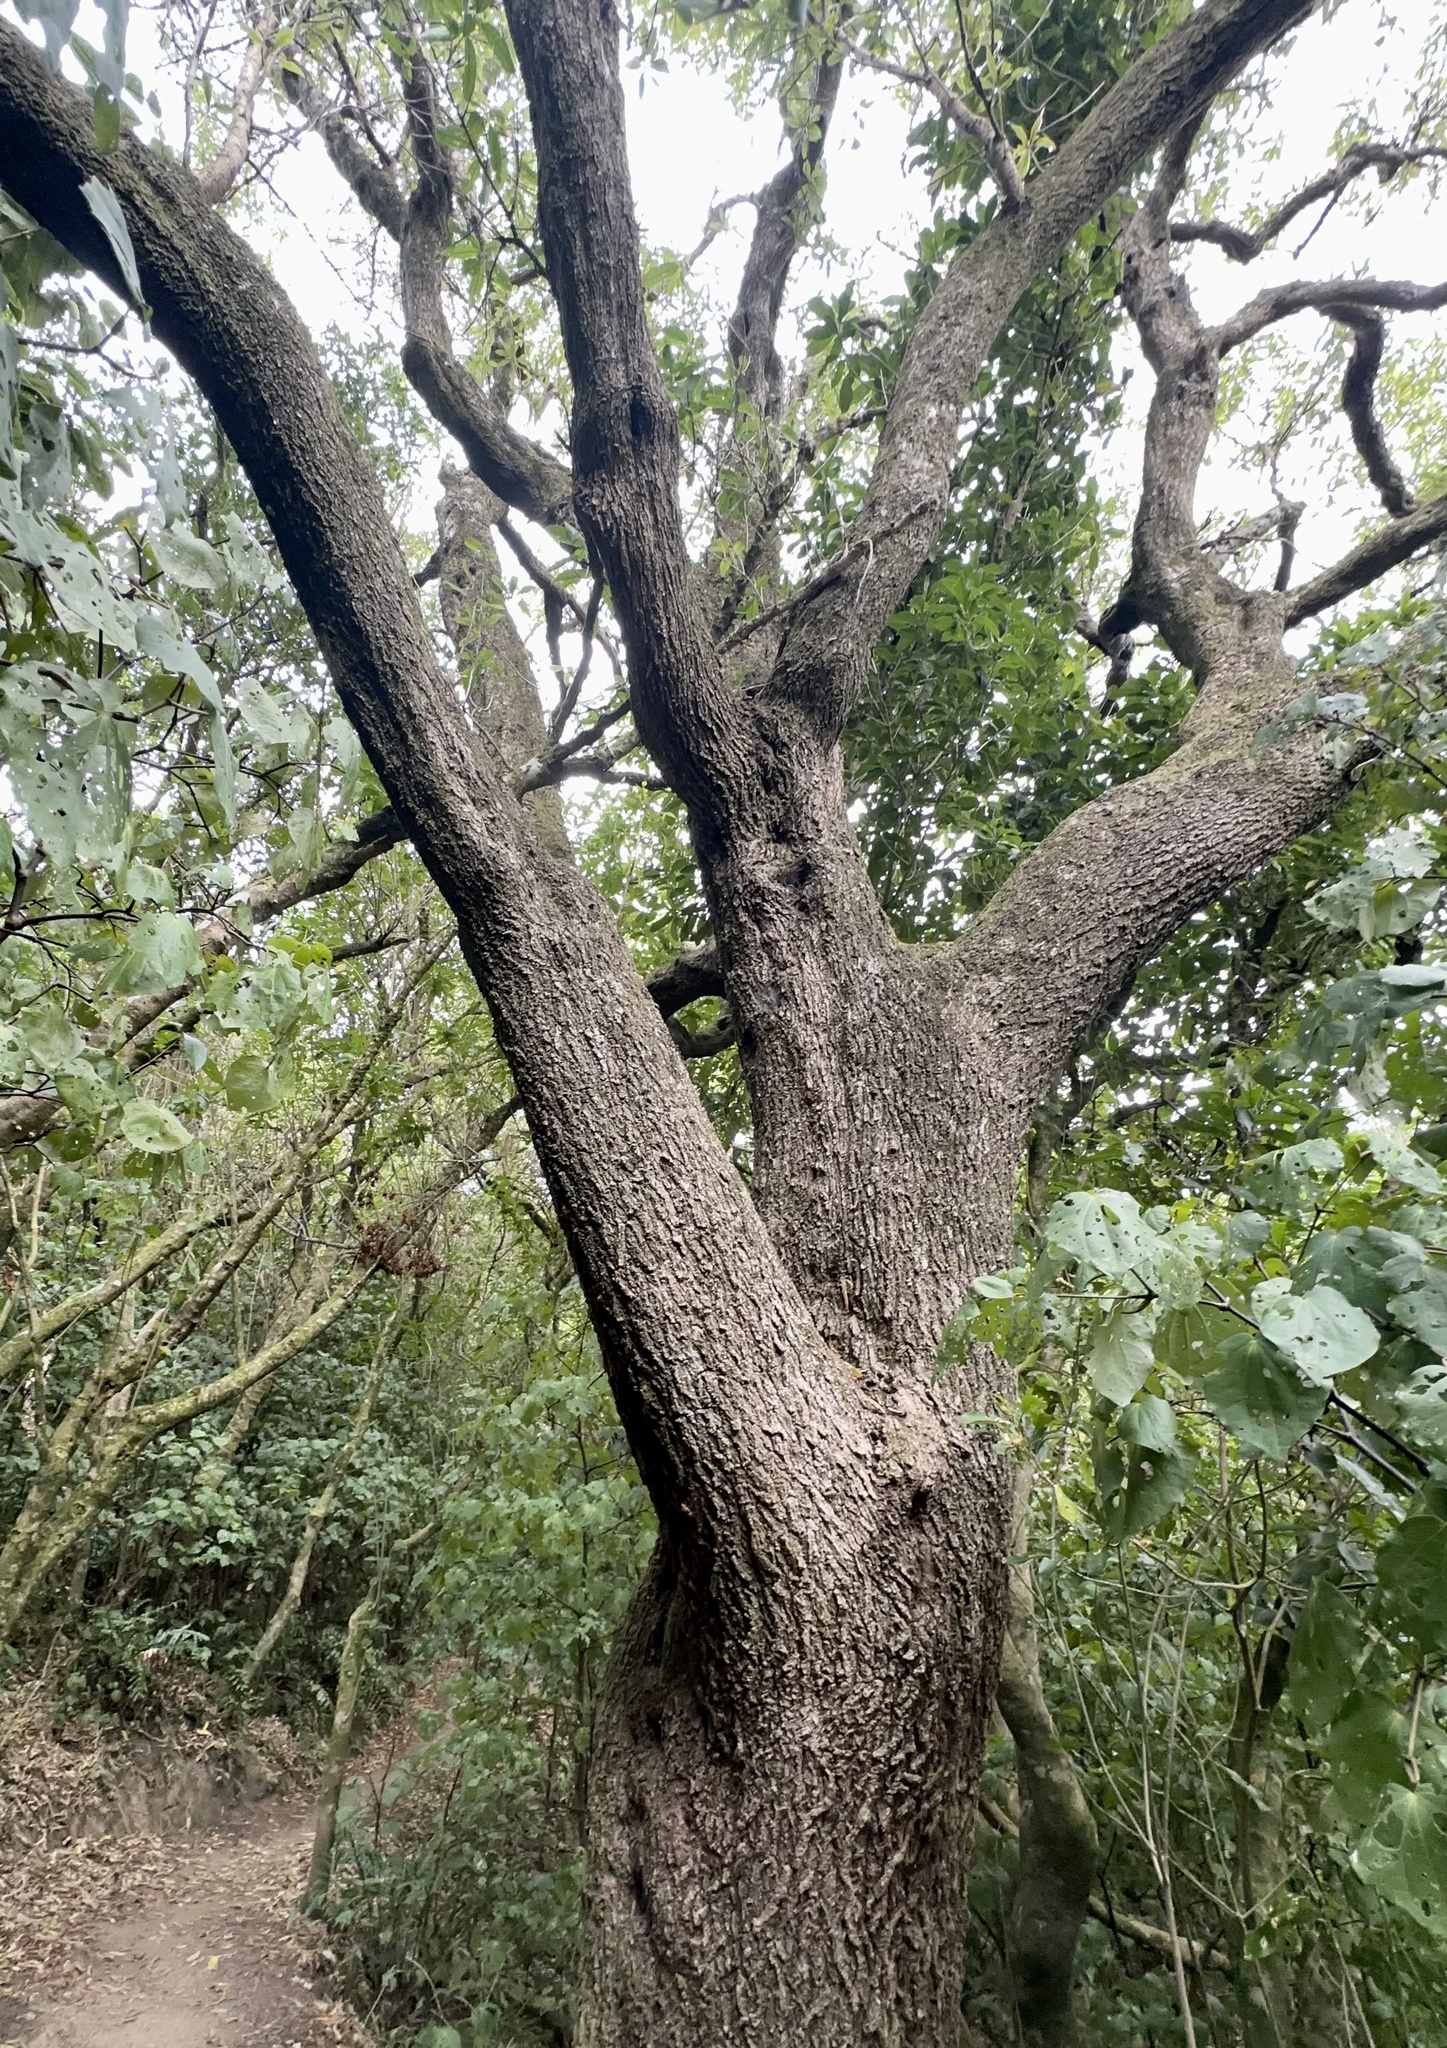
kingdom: Plantae
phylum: Tracheophyta
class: Magnoliopsida
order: Lamiales
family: Scrophulariaceae
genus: Myoporum
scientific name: Myoporum laetum
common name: Ngaio tree
